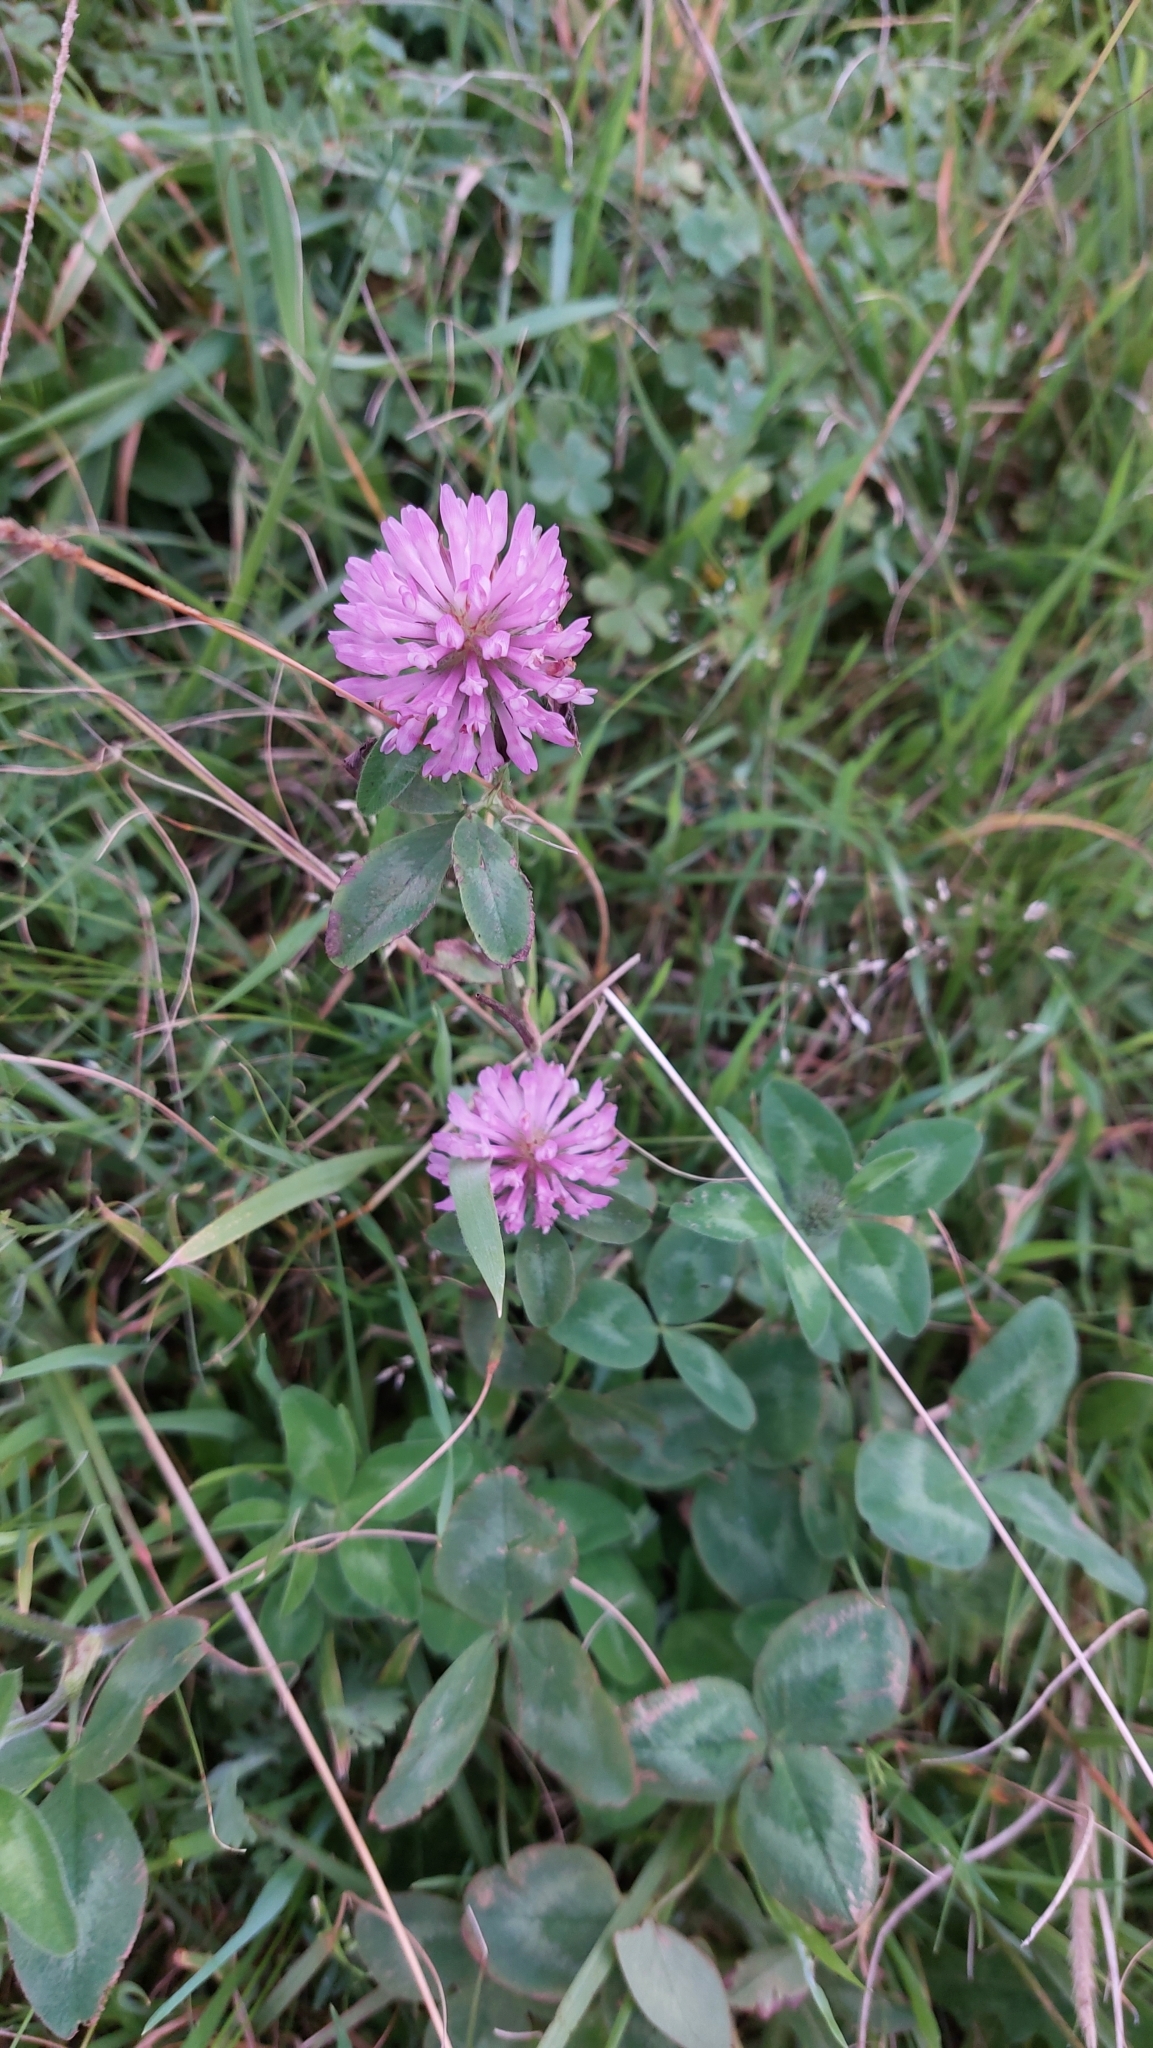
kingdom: Plantae
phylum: Tracheophyta
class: Magnoliopsida
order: Fabales
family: Fabaceae
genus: Trifolium
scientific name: Trifolium pratense
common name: Red clover
